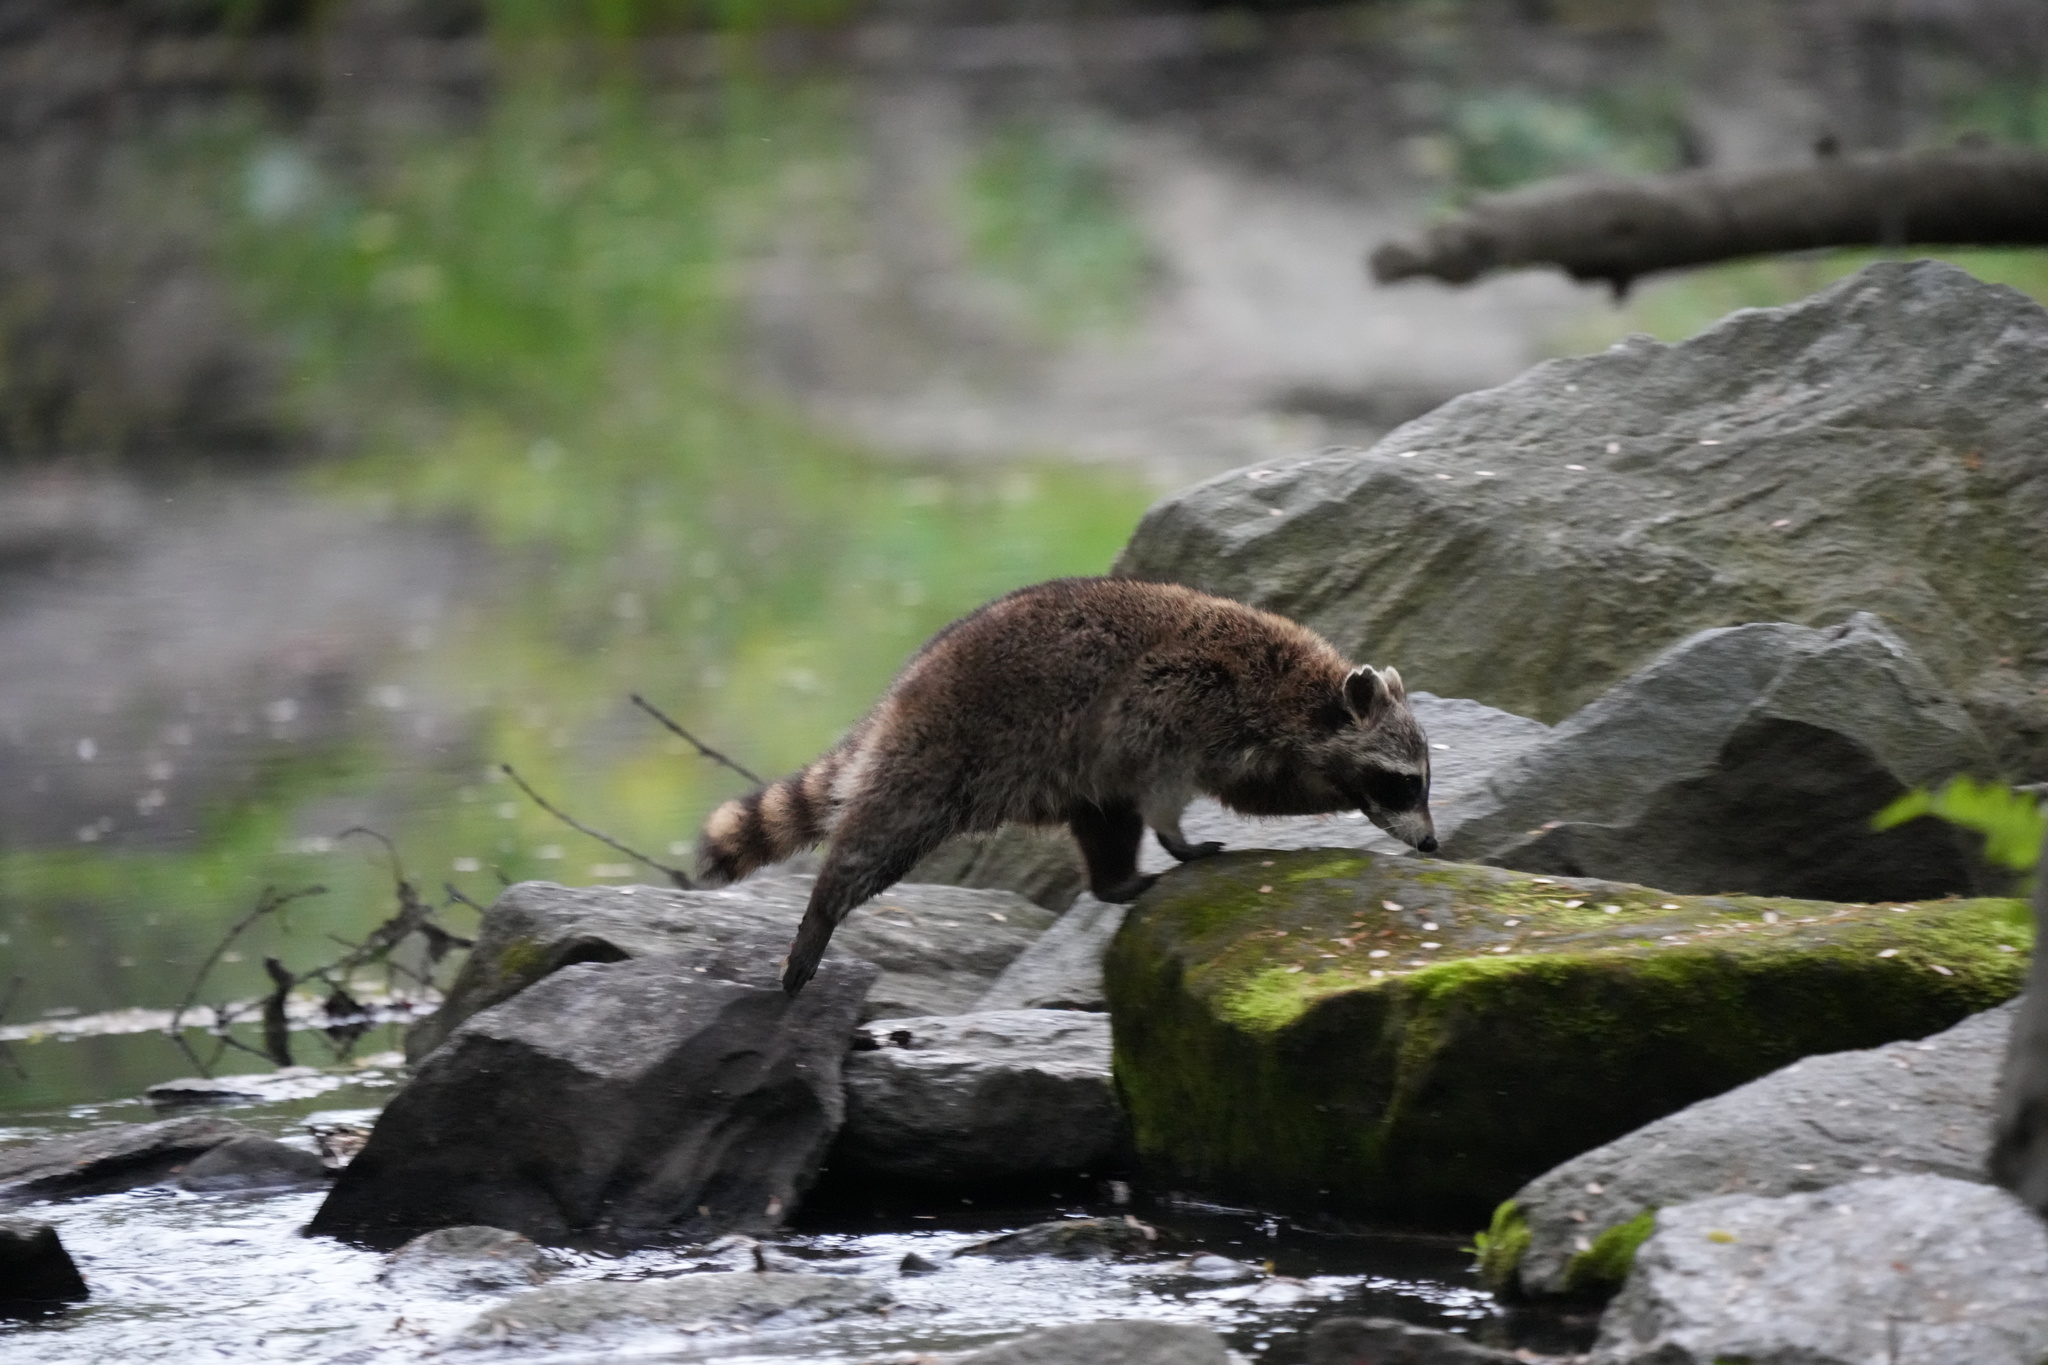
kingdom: Animalia
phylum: Chordata
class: Mammalia
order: Carnivora
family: Procyonidae
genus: Procyon
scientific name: Procyon lotor
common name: Raccoon
